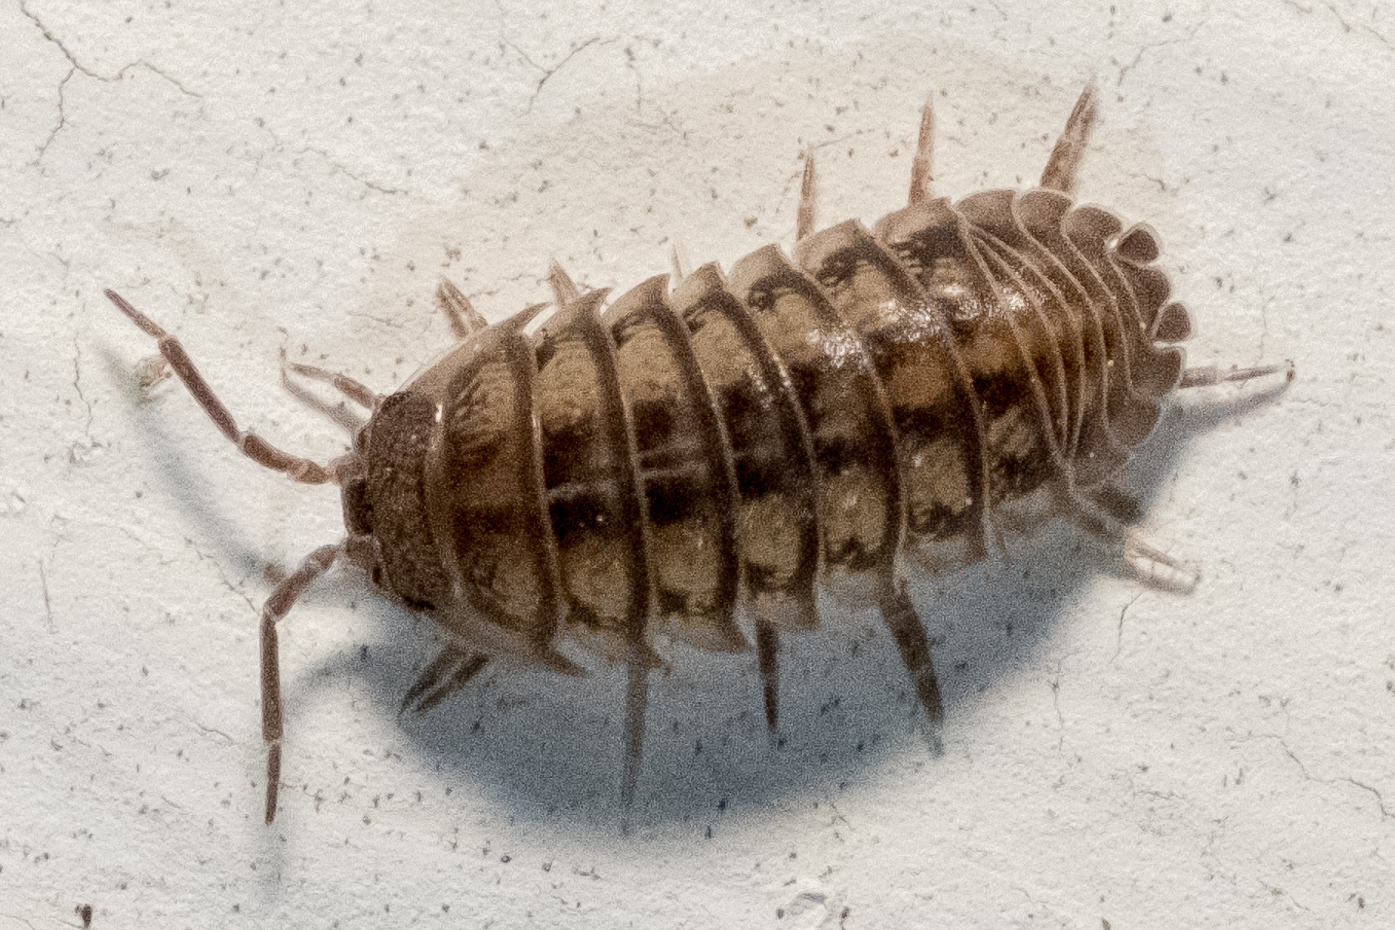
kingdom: Animalia
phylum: Arthropoda
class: Malacostraca
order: Isopoda
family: Armadillidiidae
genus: Armadillidium
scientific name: Armadillidium nasatum
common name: Isopod
